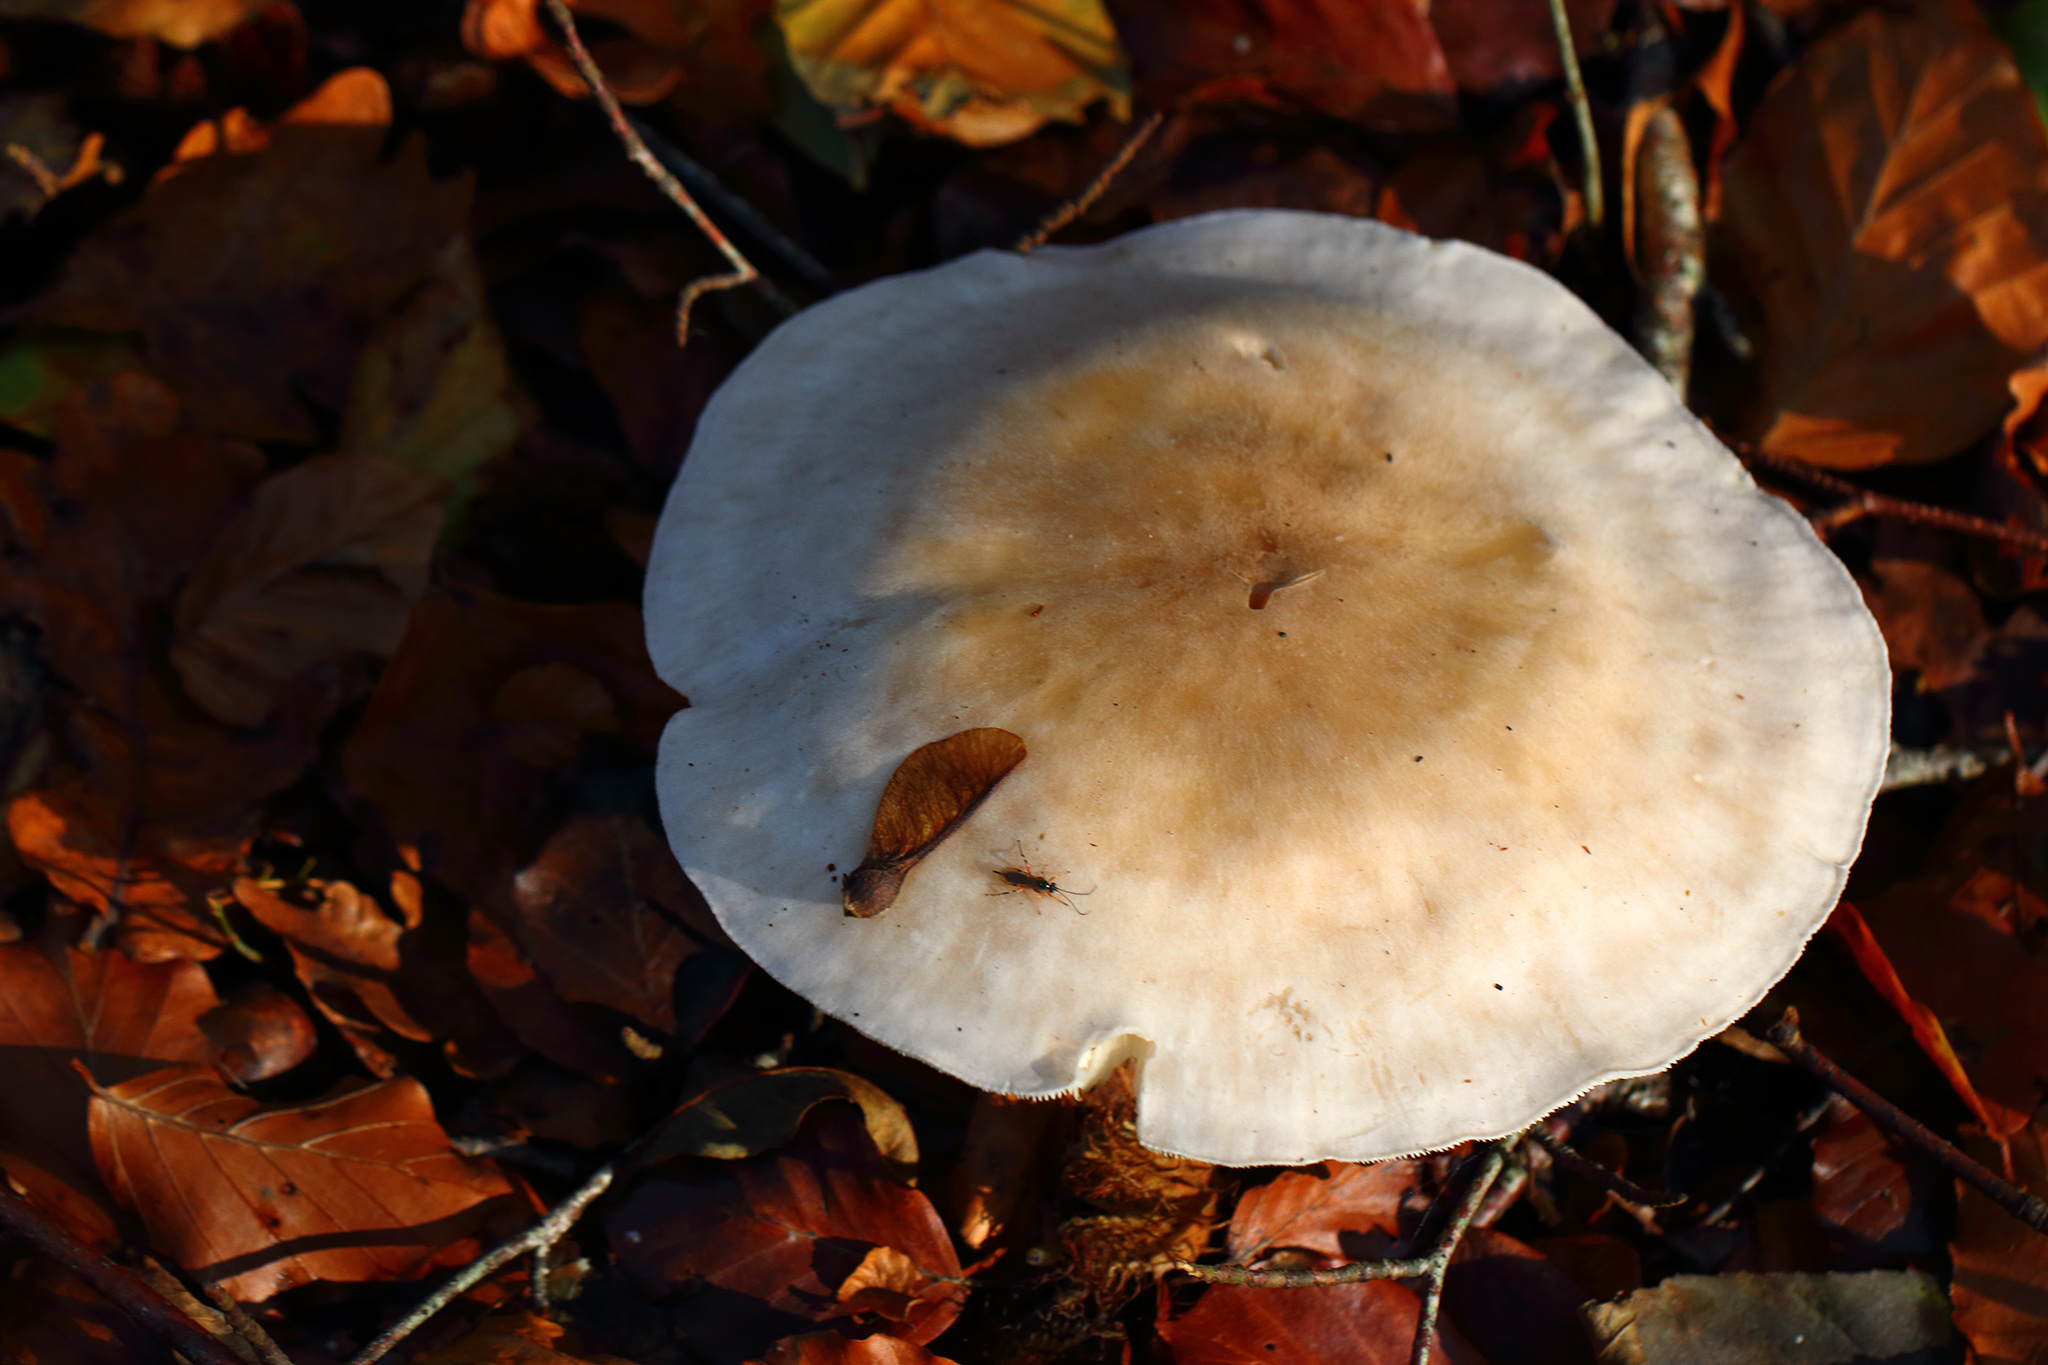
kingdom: Fungi
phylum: Basidiomycota
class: Agaricomycetes
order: Agaricales
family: Tricholomataceae
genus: Clitocybe
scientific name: Clitocybe nebularis
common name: Clouded agaric
